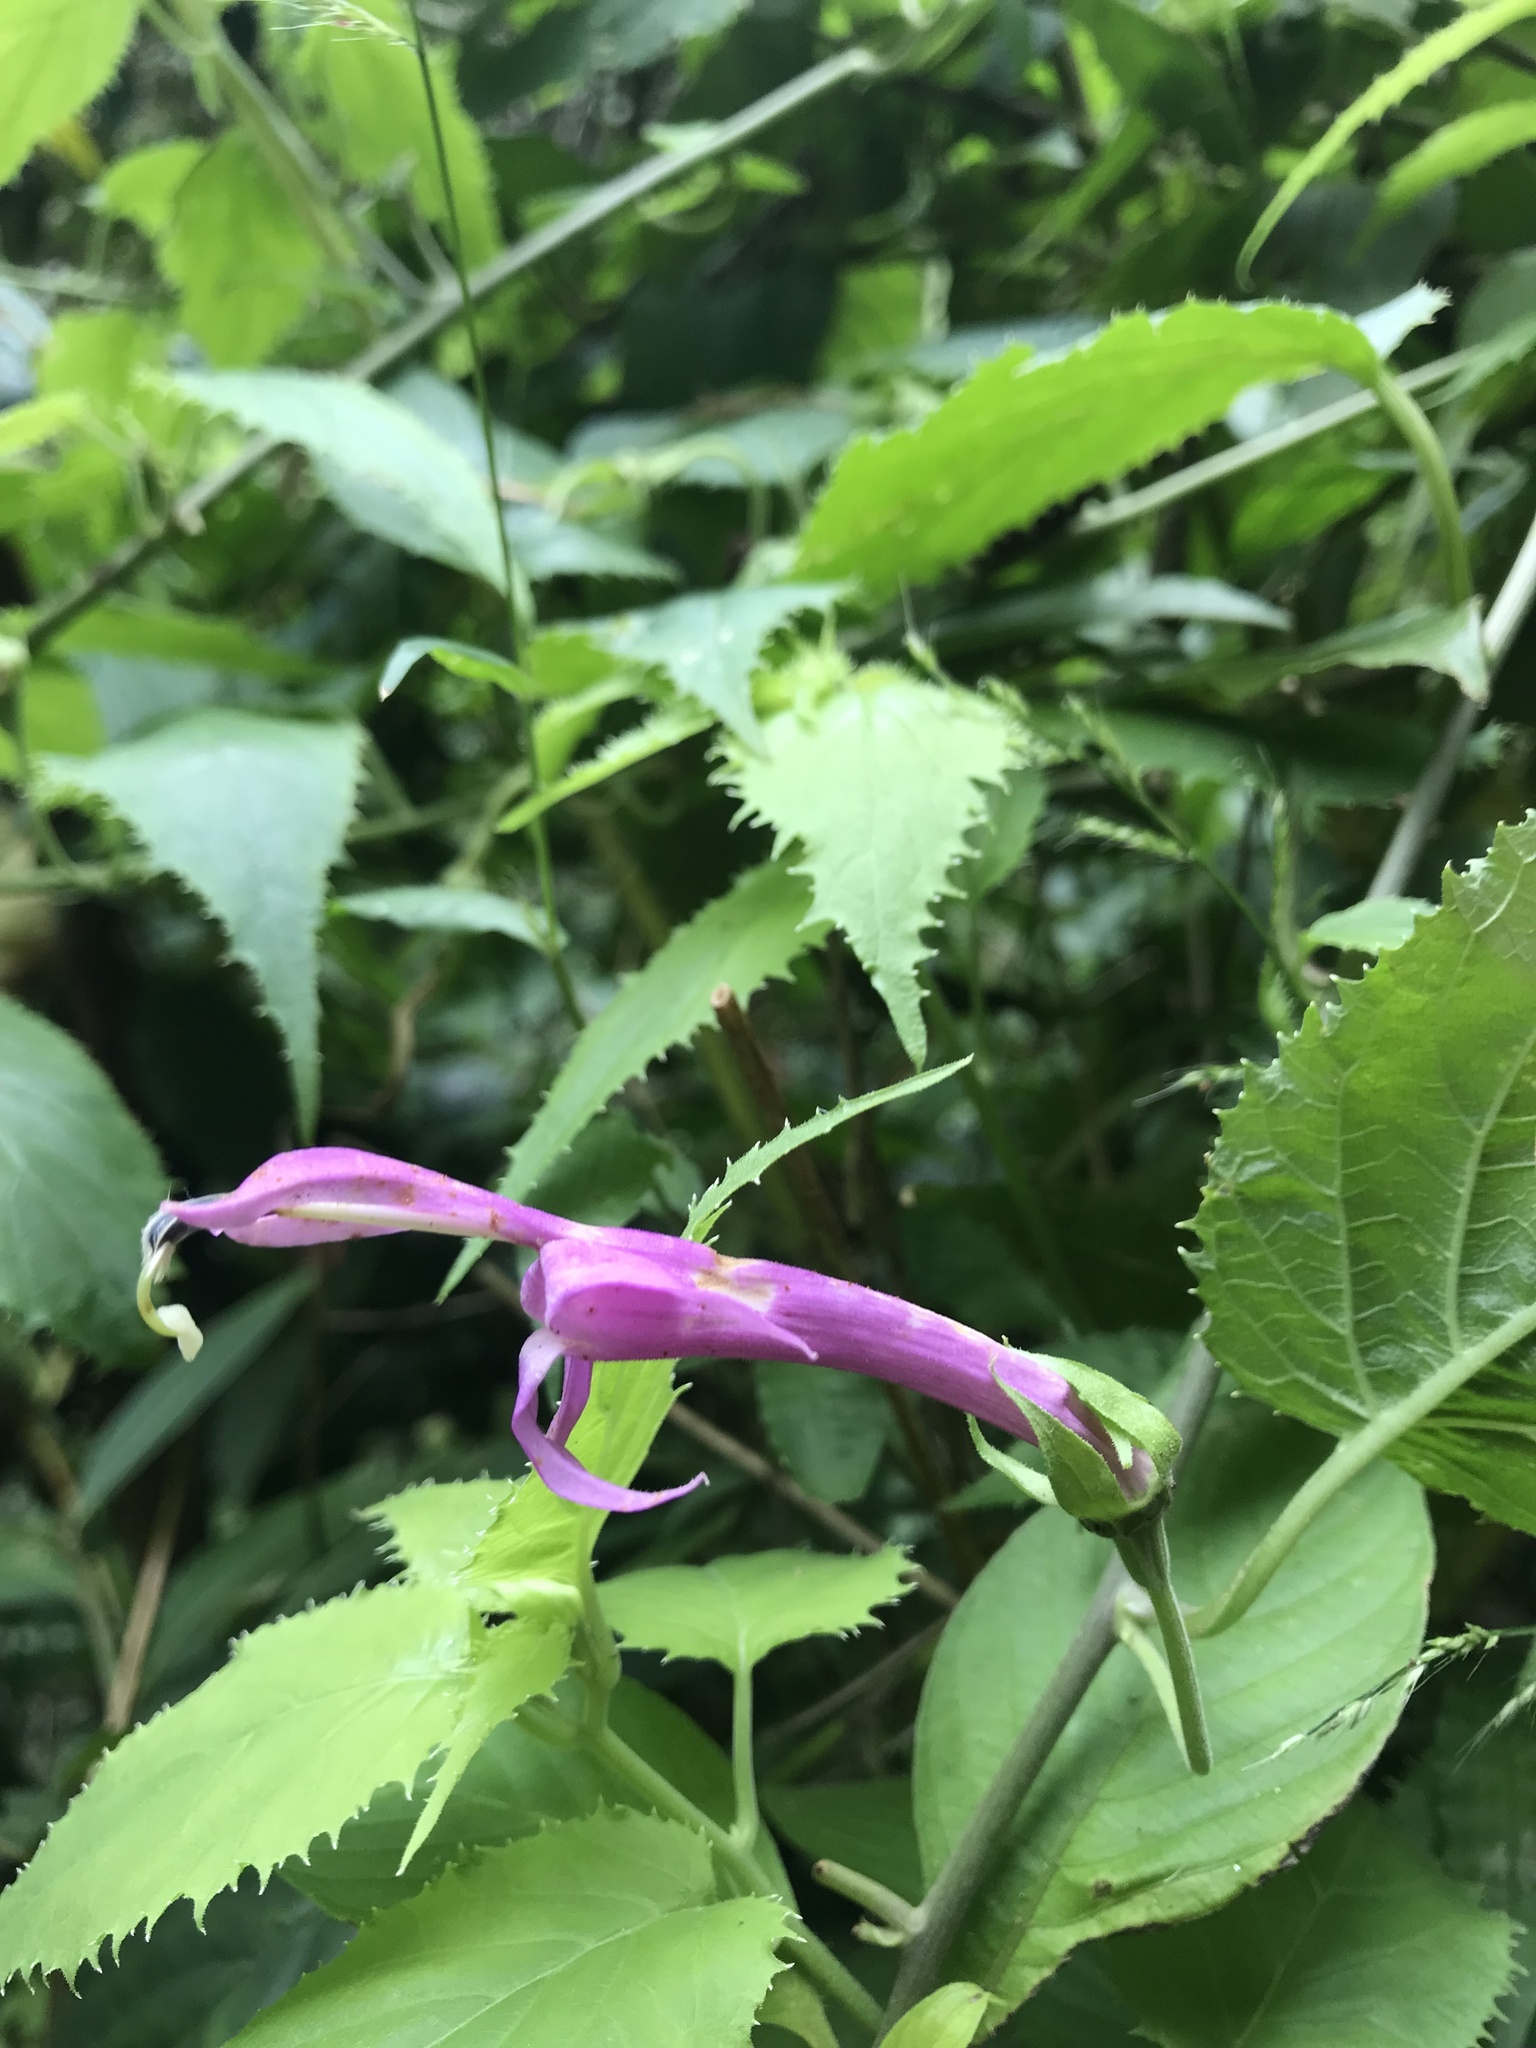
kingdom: Plantae
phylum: Tracheophyta
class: Magnoliopsida
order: Asterales
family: Campanulaceae
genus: Siphocampylus
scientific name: Siphocampylus cordatus
